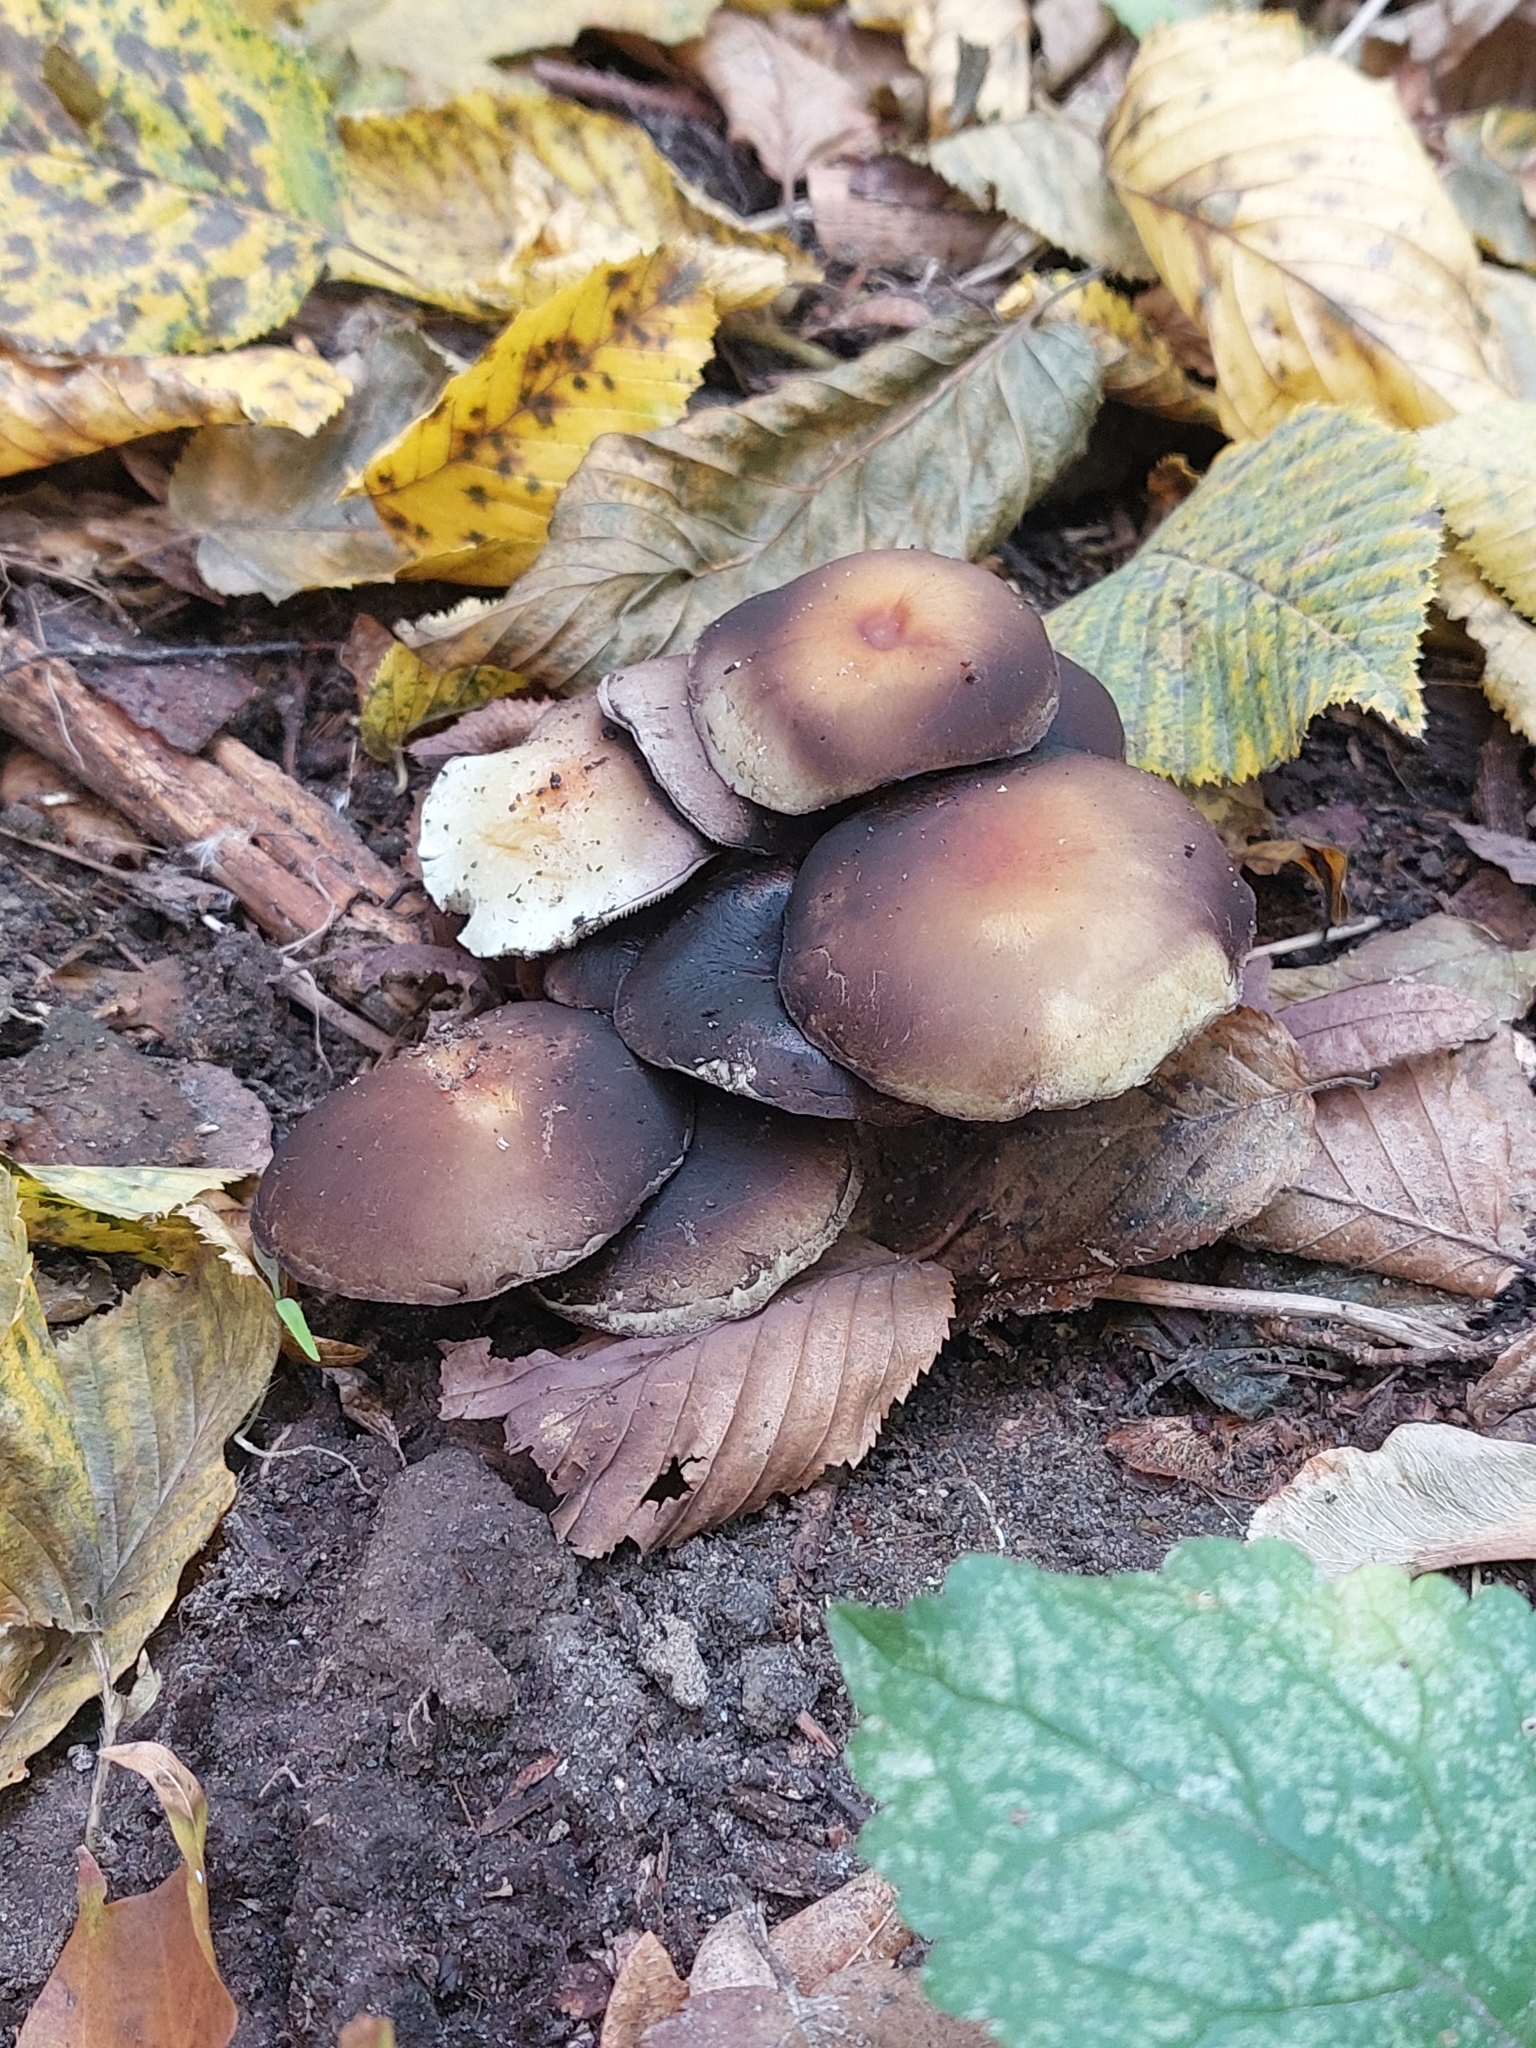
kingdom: Fungi
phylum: Basidiomycota
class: Agaricomycetes
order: Agaricales
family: Strophariaceae
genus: Hypholoma
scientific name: Hypholoma fasciculare
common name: Sulphur tuft
